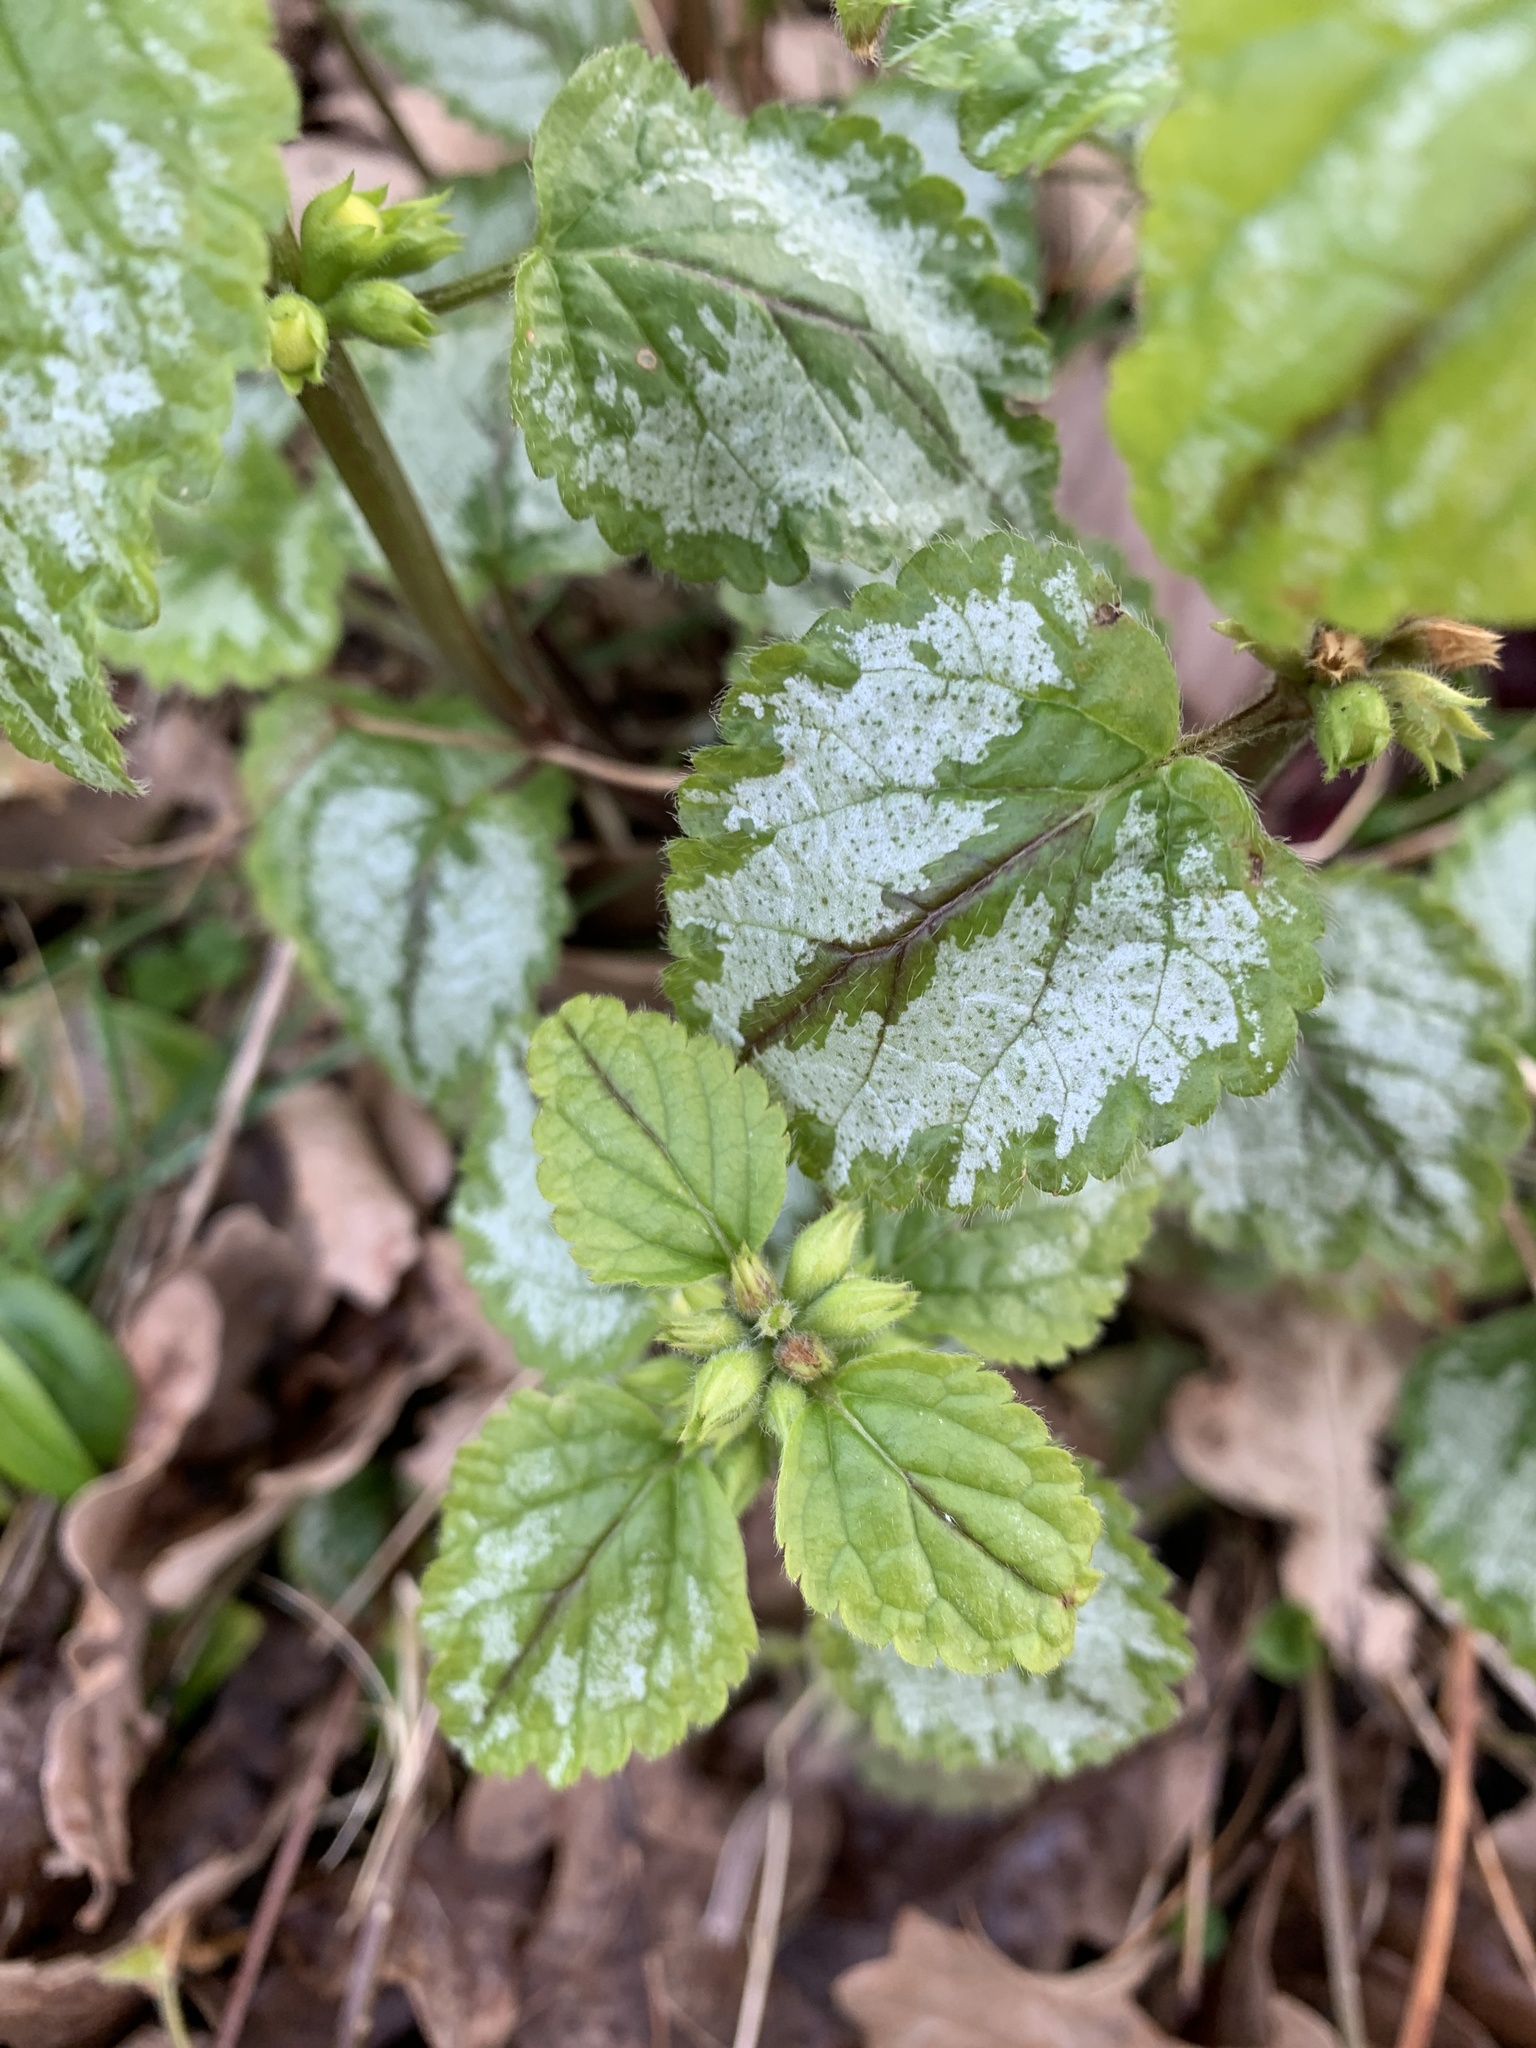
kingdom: Plantae
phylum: Tracheophyta
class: Magnoliopsida
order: Lamiales
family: Lamiaceae
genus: Lamium
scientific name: Lamium galeobdolon
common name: Yellow archangel
